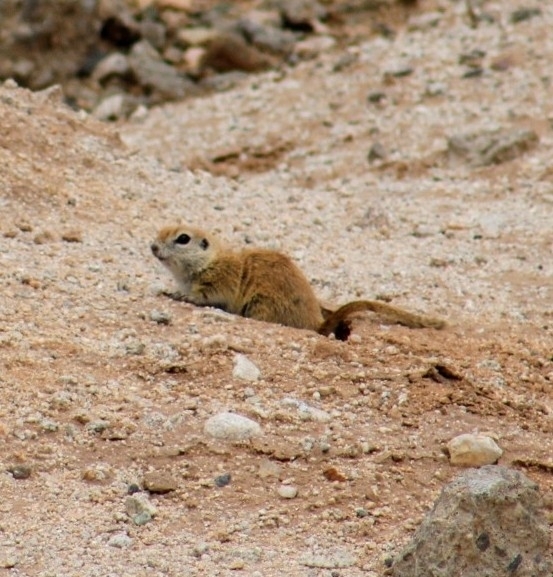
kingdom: Animalia
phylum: Chordata
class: Mammalia
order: Rodentia
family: Sciuridae
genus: Xerospermophilus
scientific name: Xerospermophilus tereticaudus
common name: Round-tailed ground squirrel
